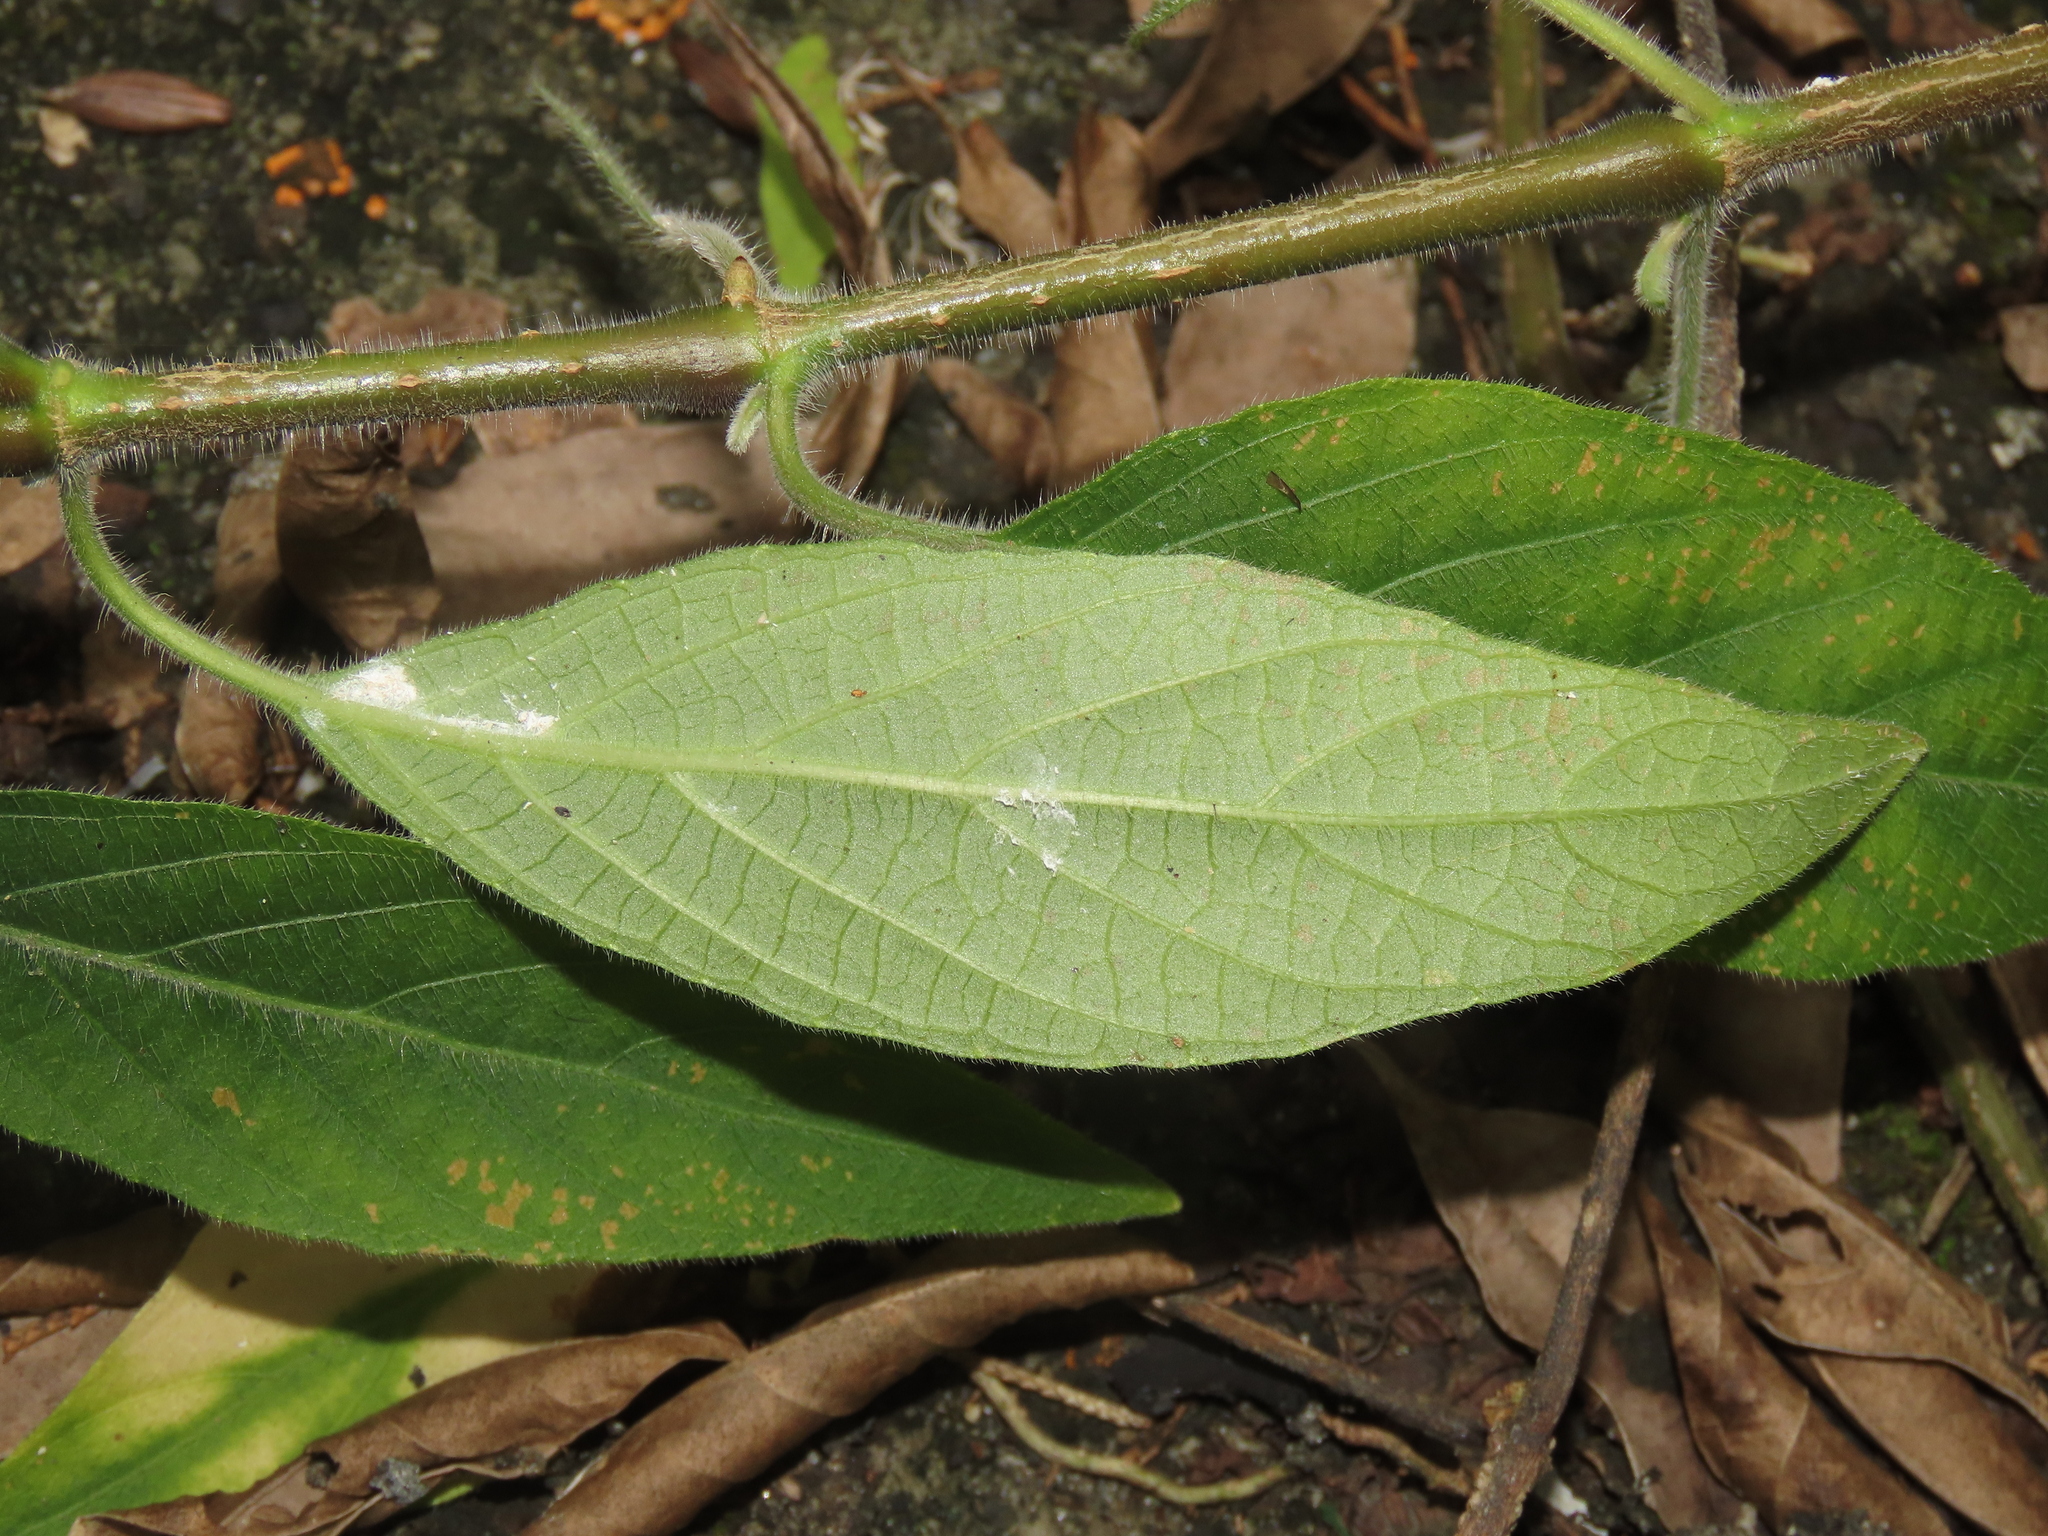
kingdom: Plantae
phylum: Tracheophyta
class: Magnoliopsida
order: Lamiales
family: Acanthaceae
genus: Ruellia
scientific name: Ruellia squarrosa
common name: Water bluebell
